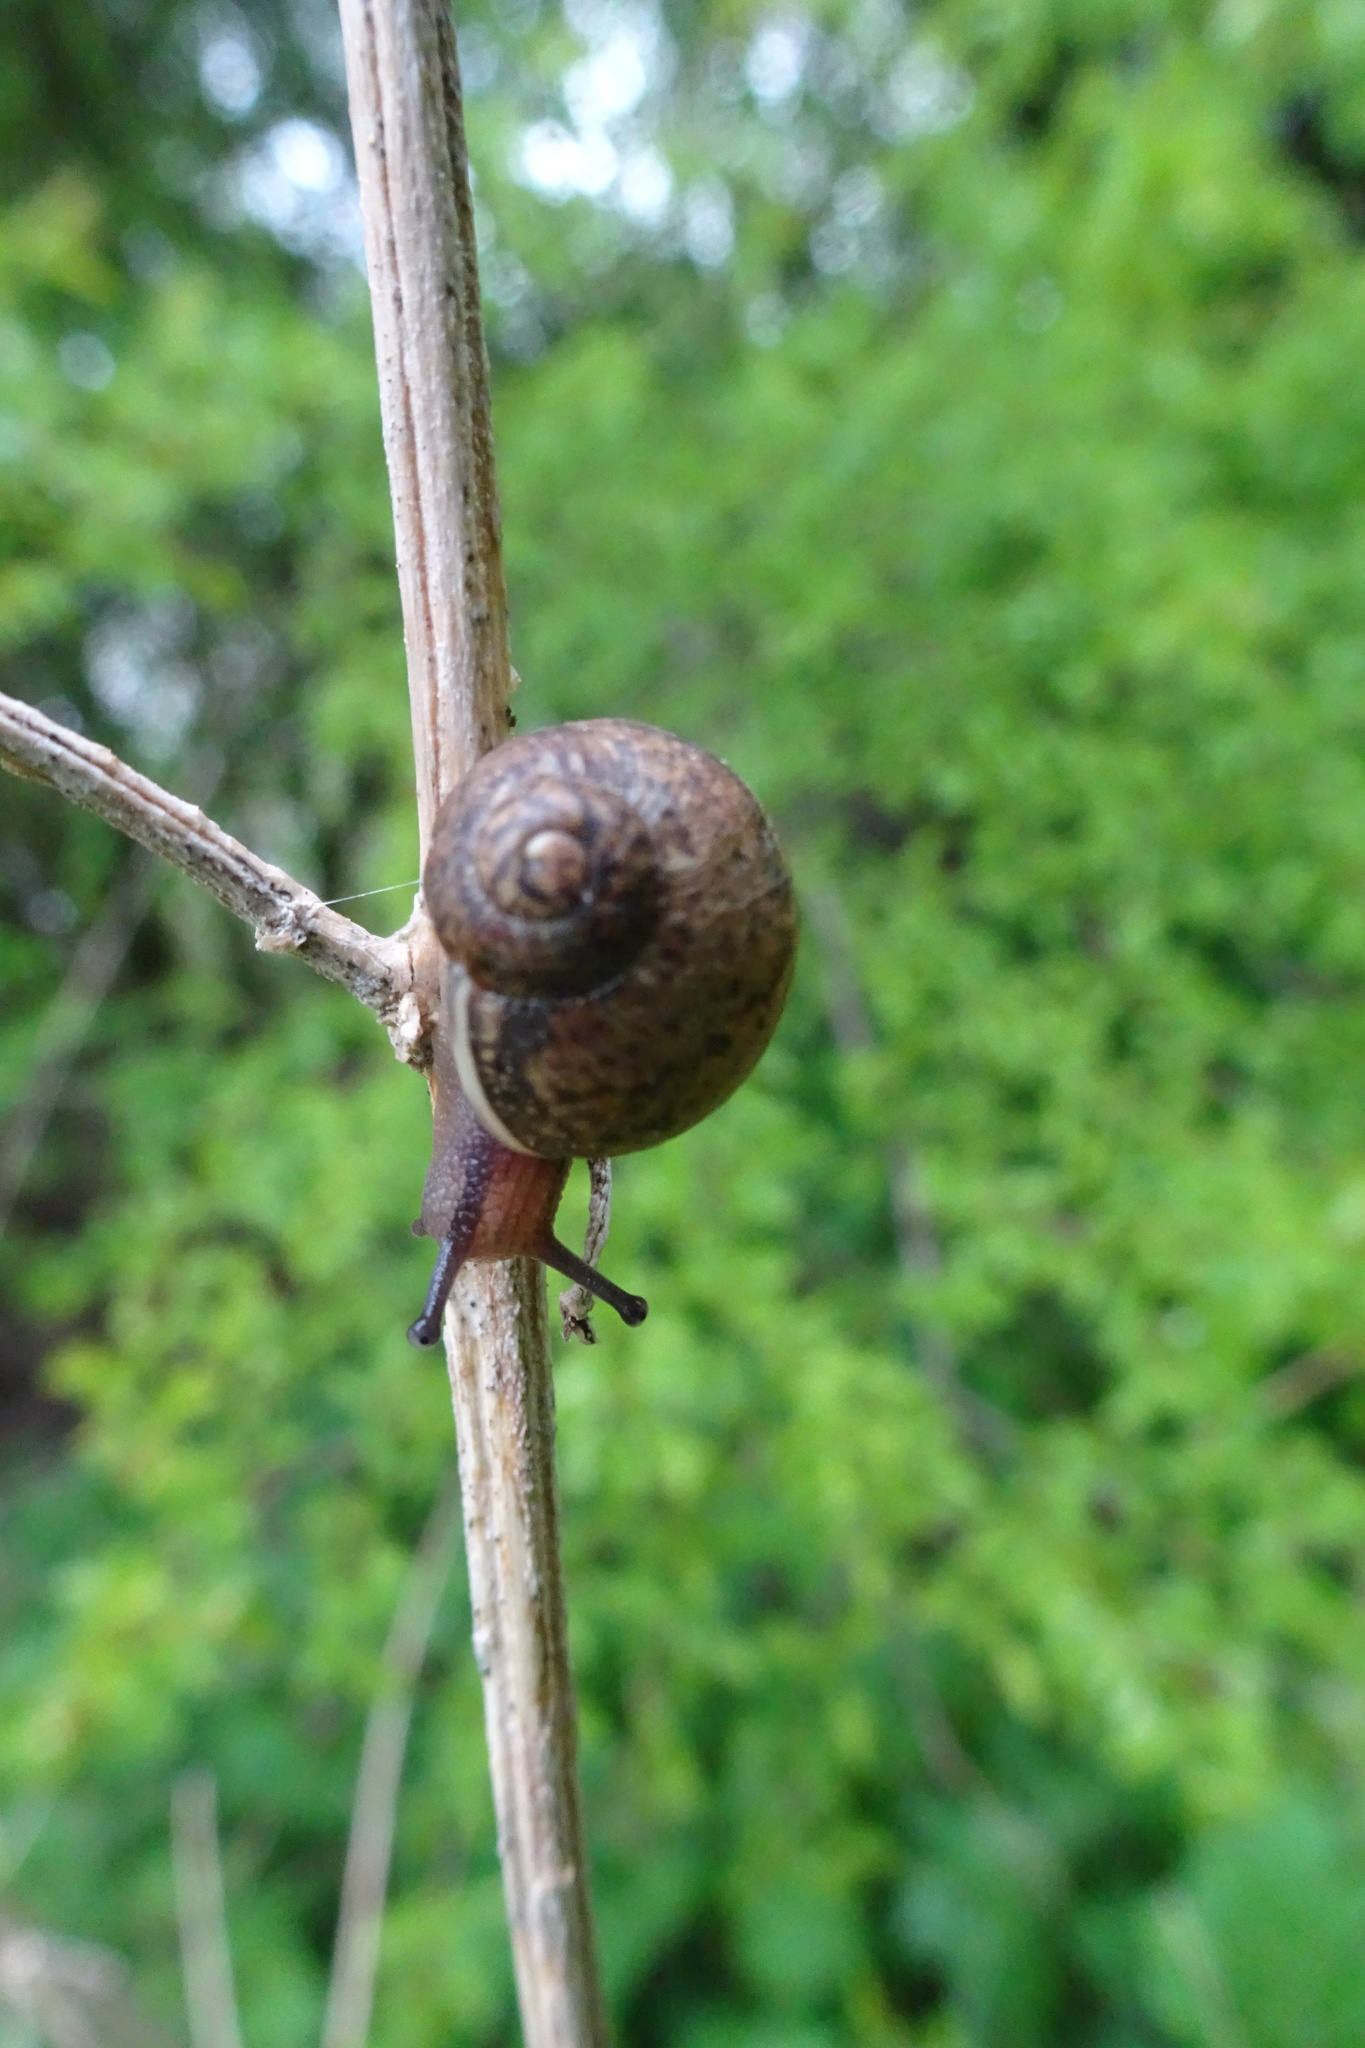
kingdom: Animalia
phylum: Mollusca
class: Gastropoda
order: Stylommatophora
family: Helicidae
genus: Cornu
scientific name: Cornu aspersum
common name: Brown garden snail
